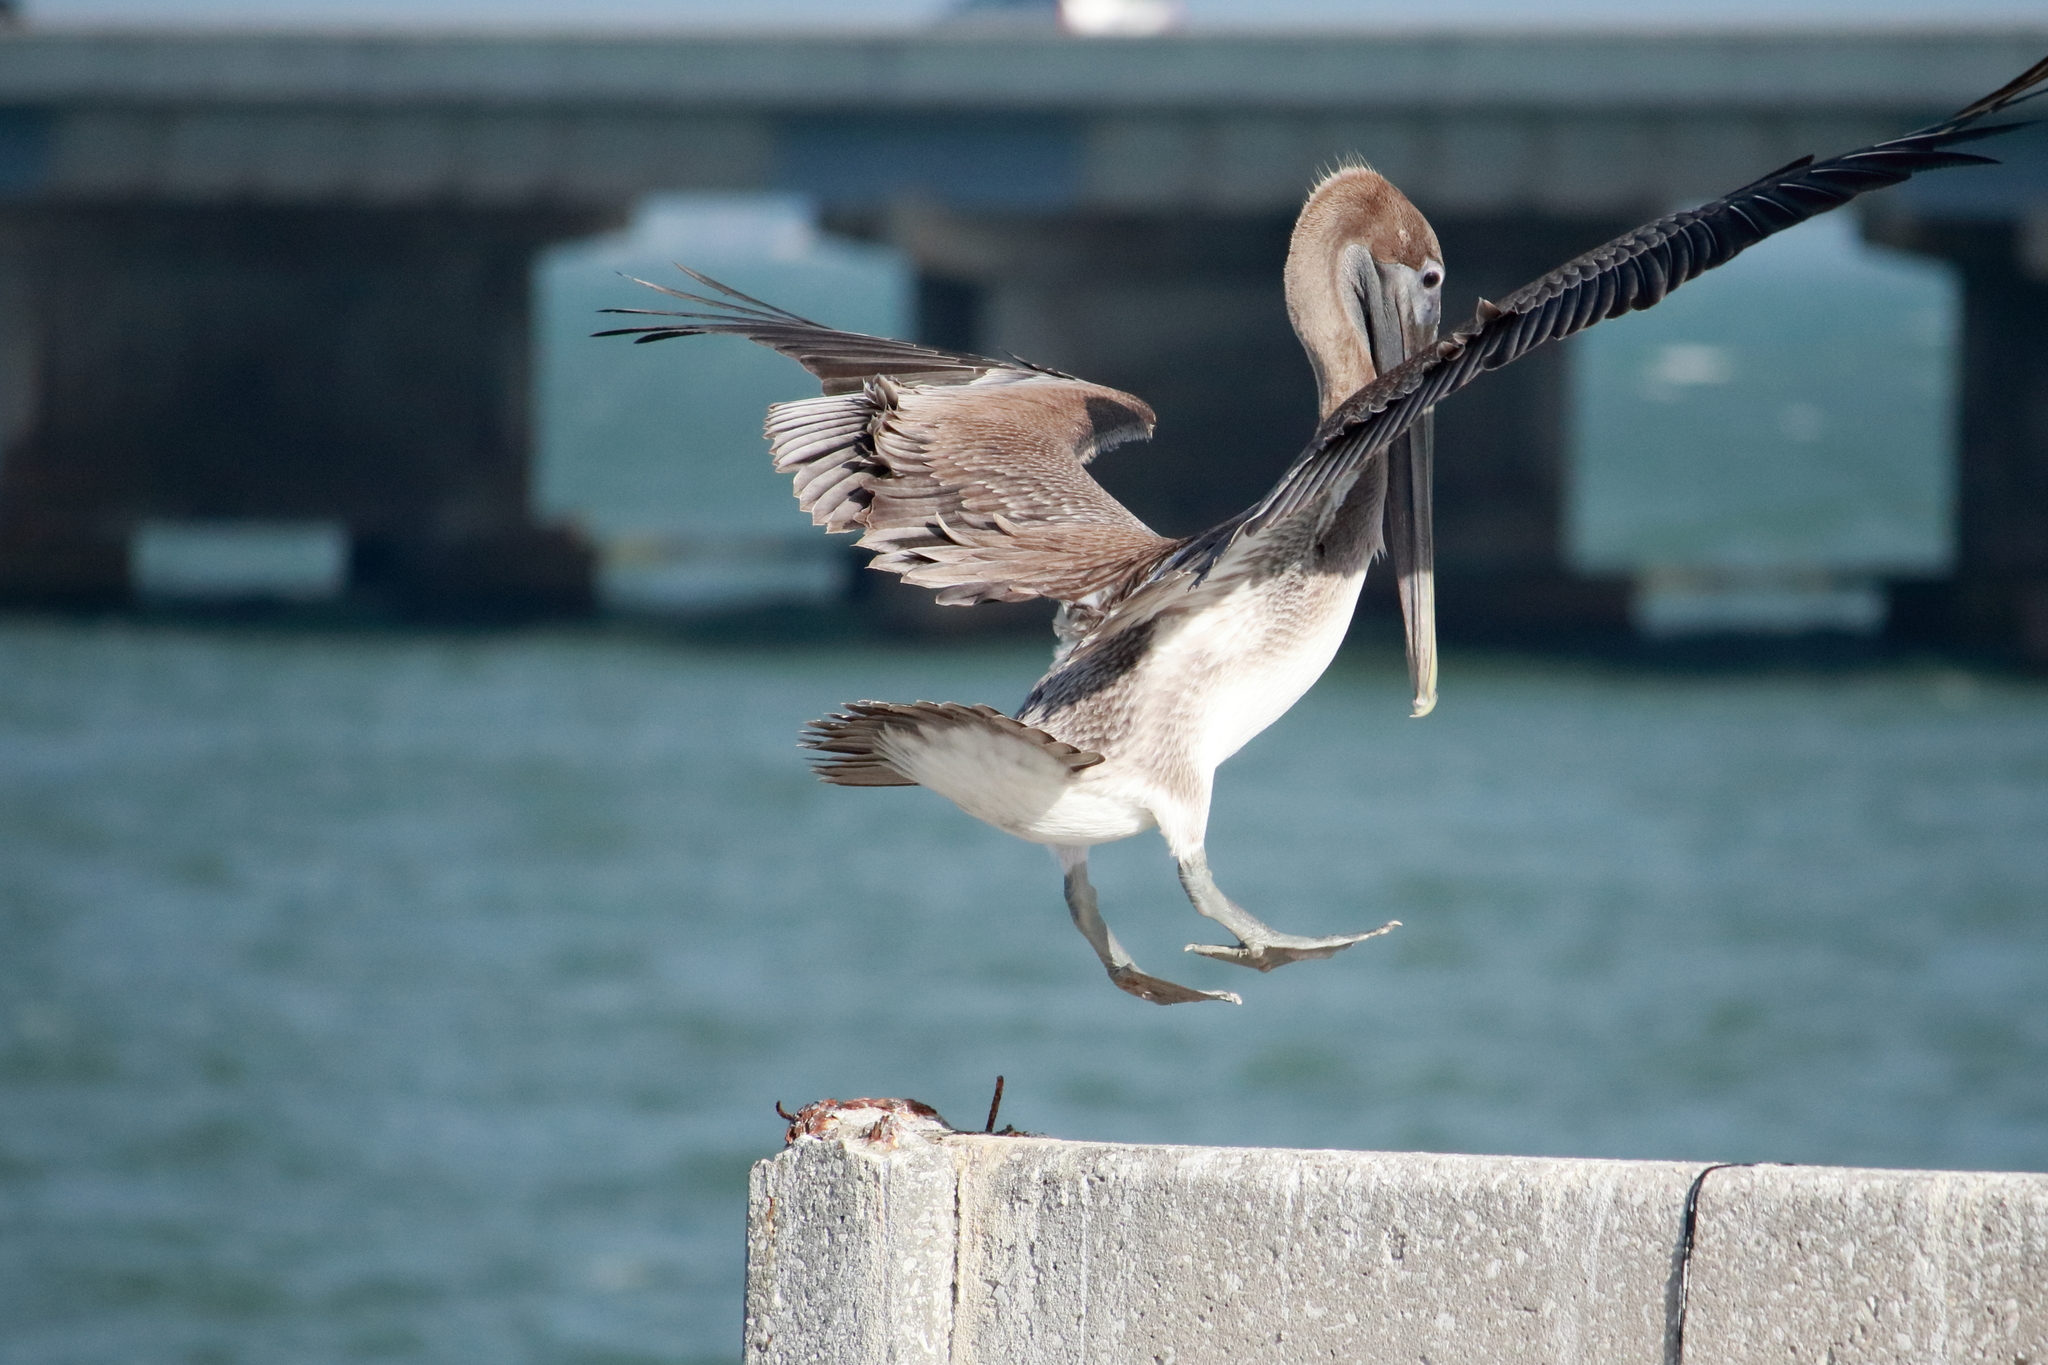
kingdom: Animalia
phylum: Chordata
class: Aves
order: Pelecaniformes
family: Pelecanidae
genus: Pelecanus
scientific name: Pelecanus occidentalis
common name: Brown pelican
